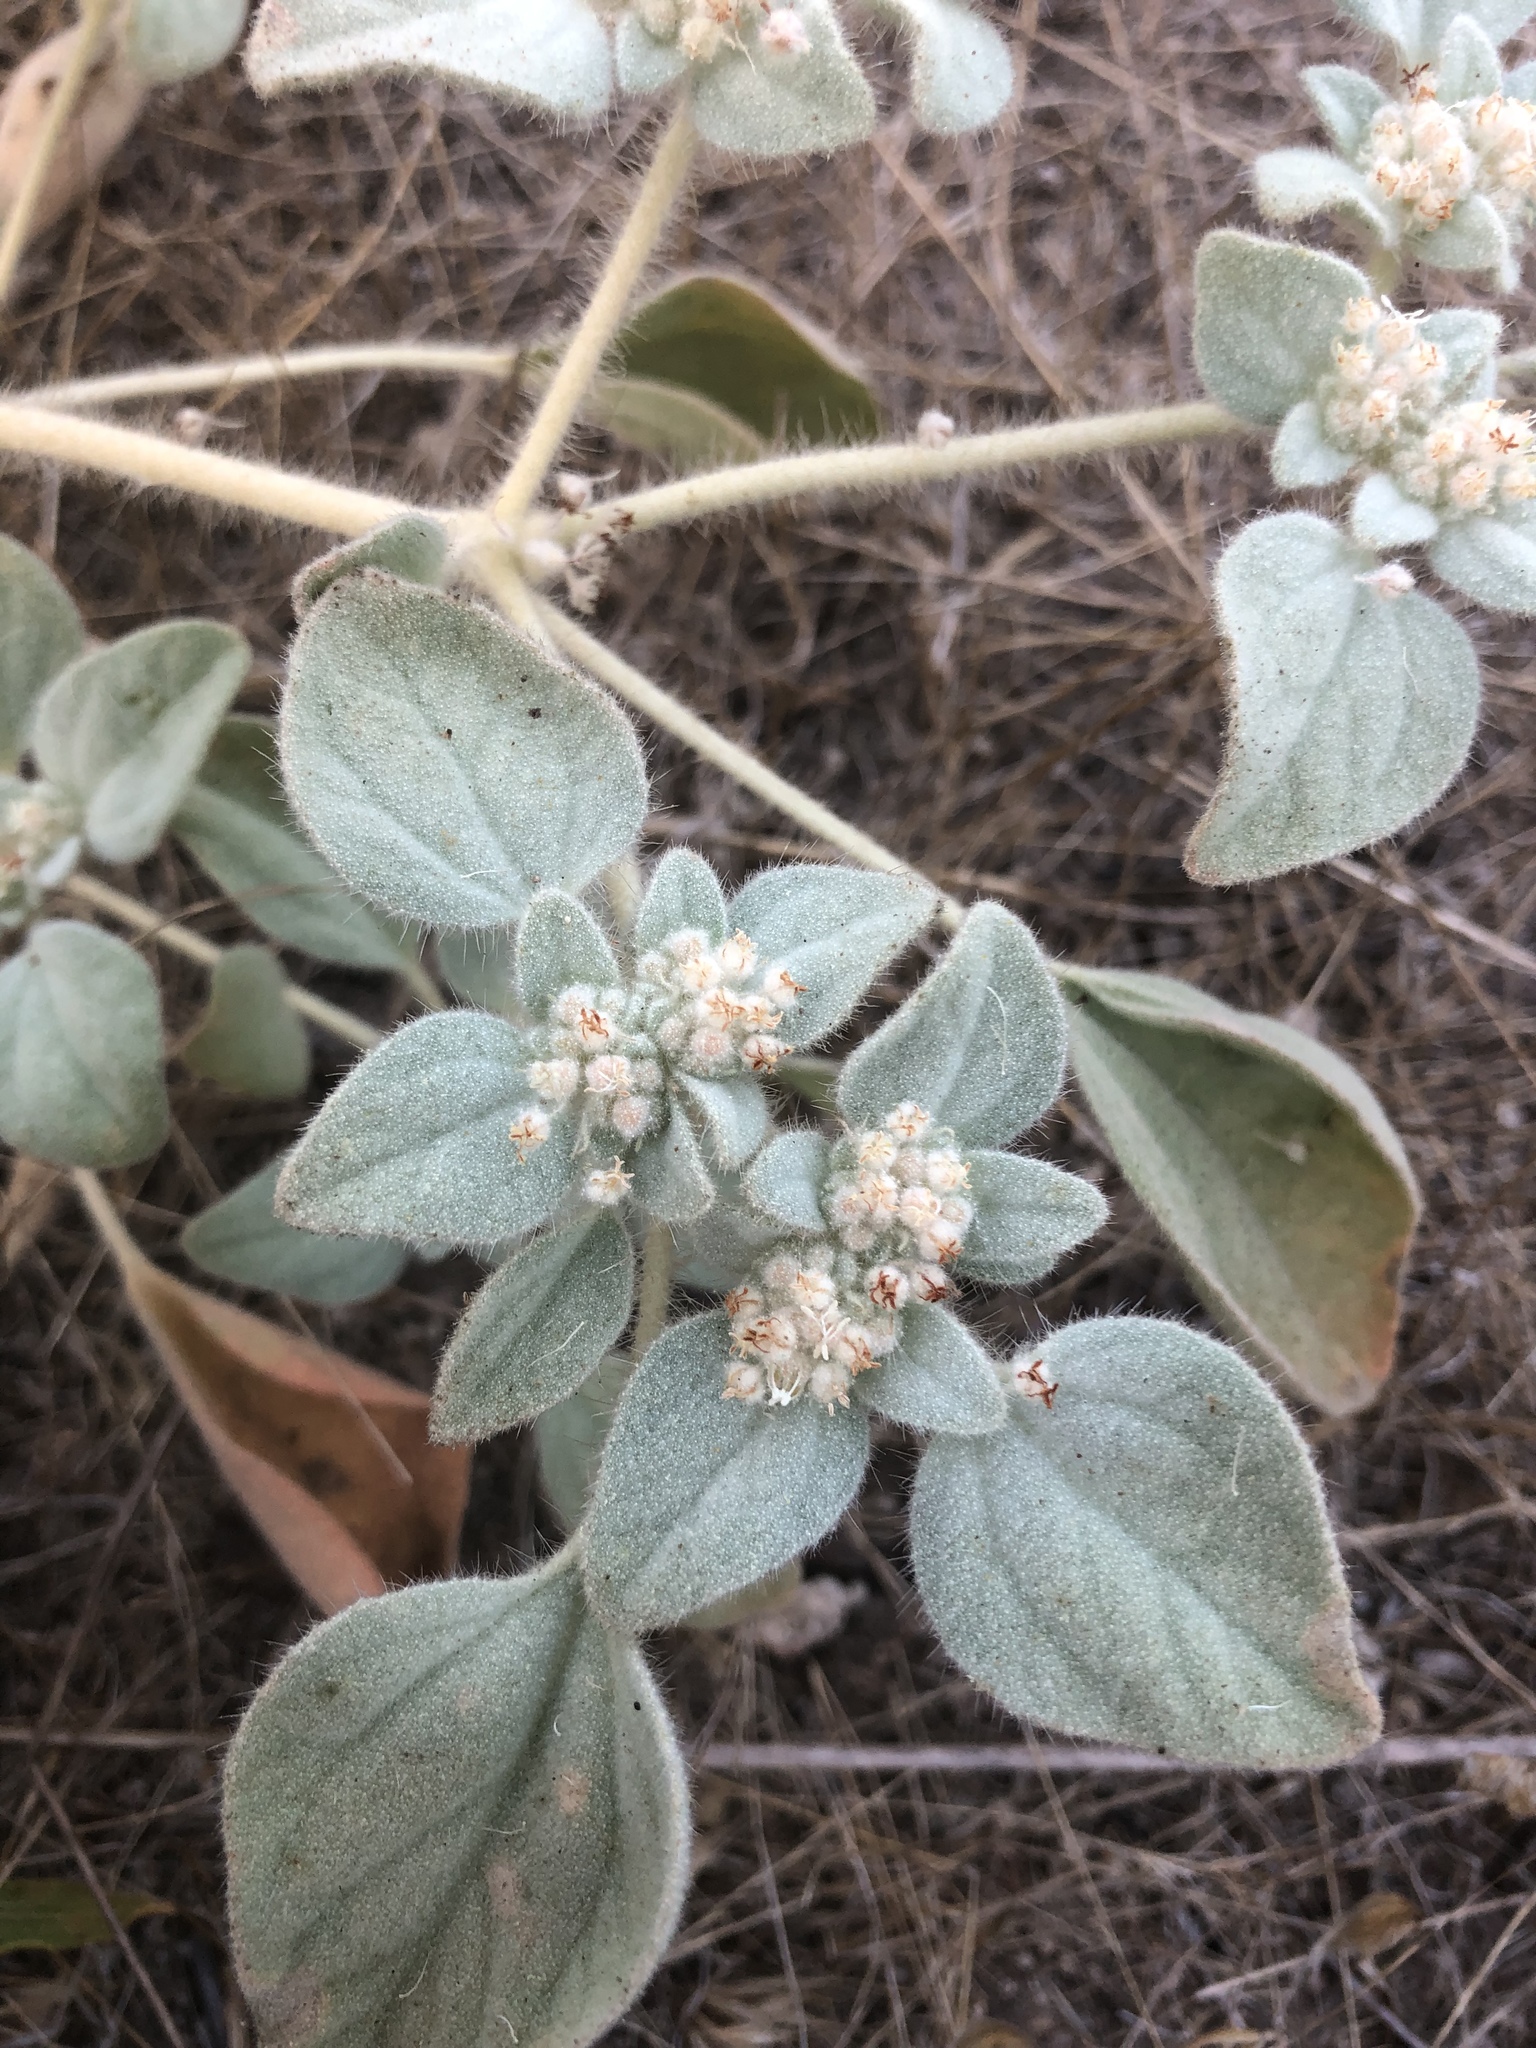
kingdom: Plantae
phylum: Tracheophyta
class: Magnoliopsida
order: Malpighiales
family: Euphorbiaceae
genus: Croton
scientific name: Croton setiger
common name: Dove weed
